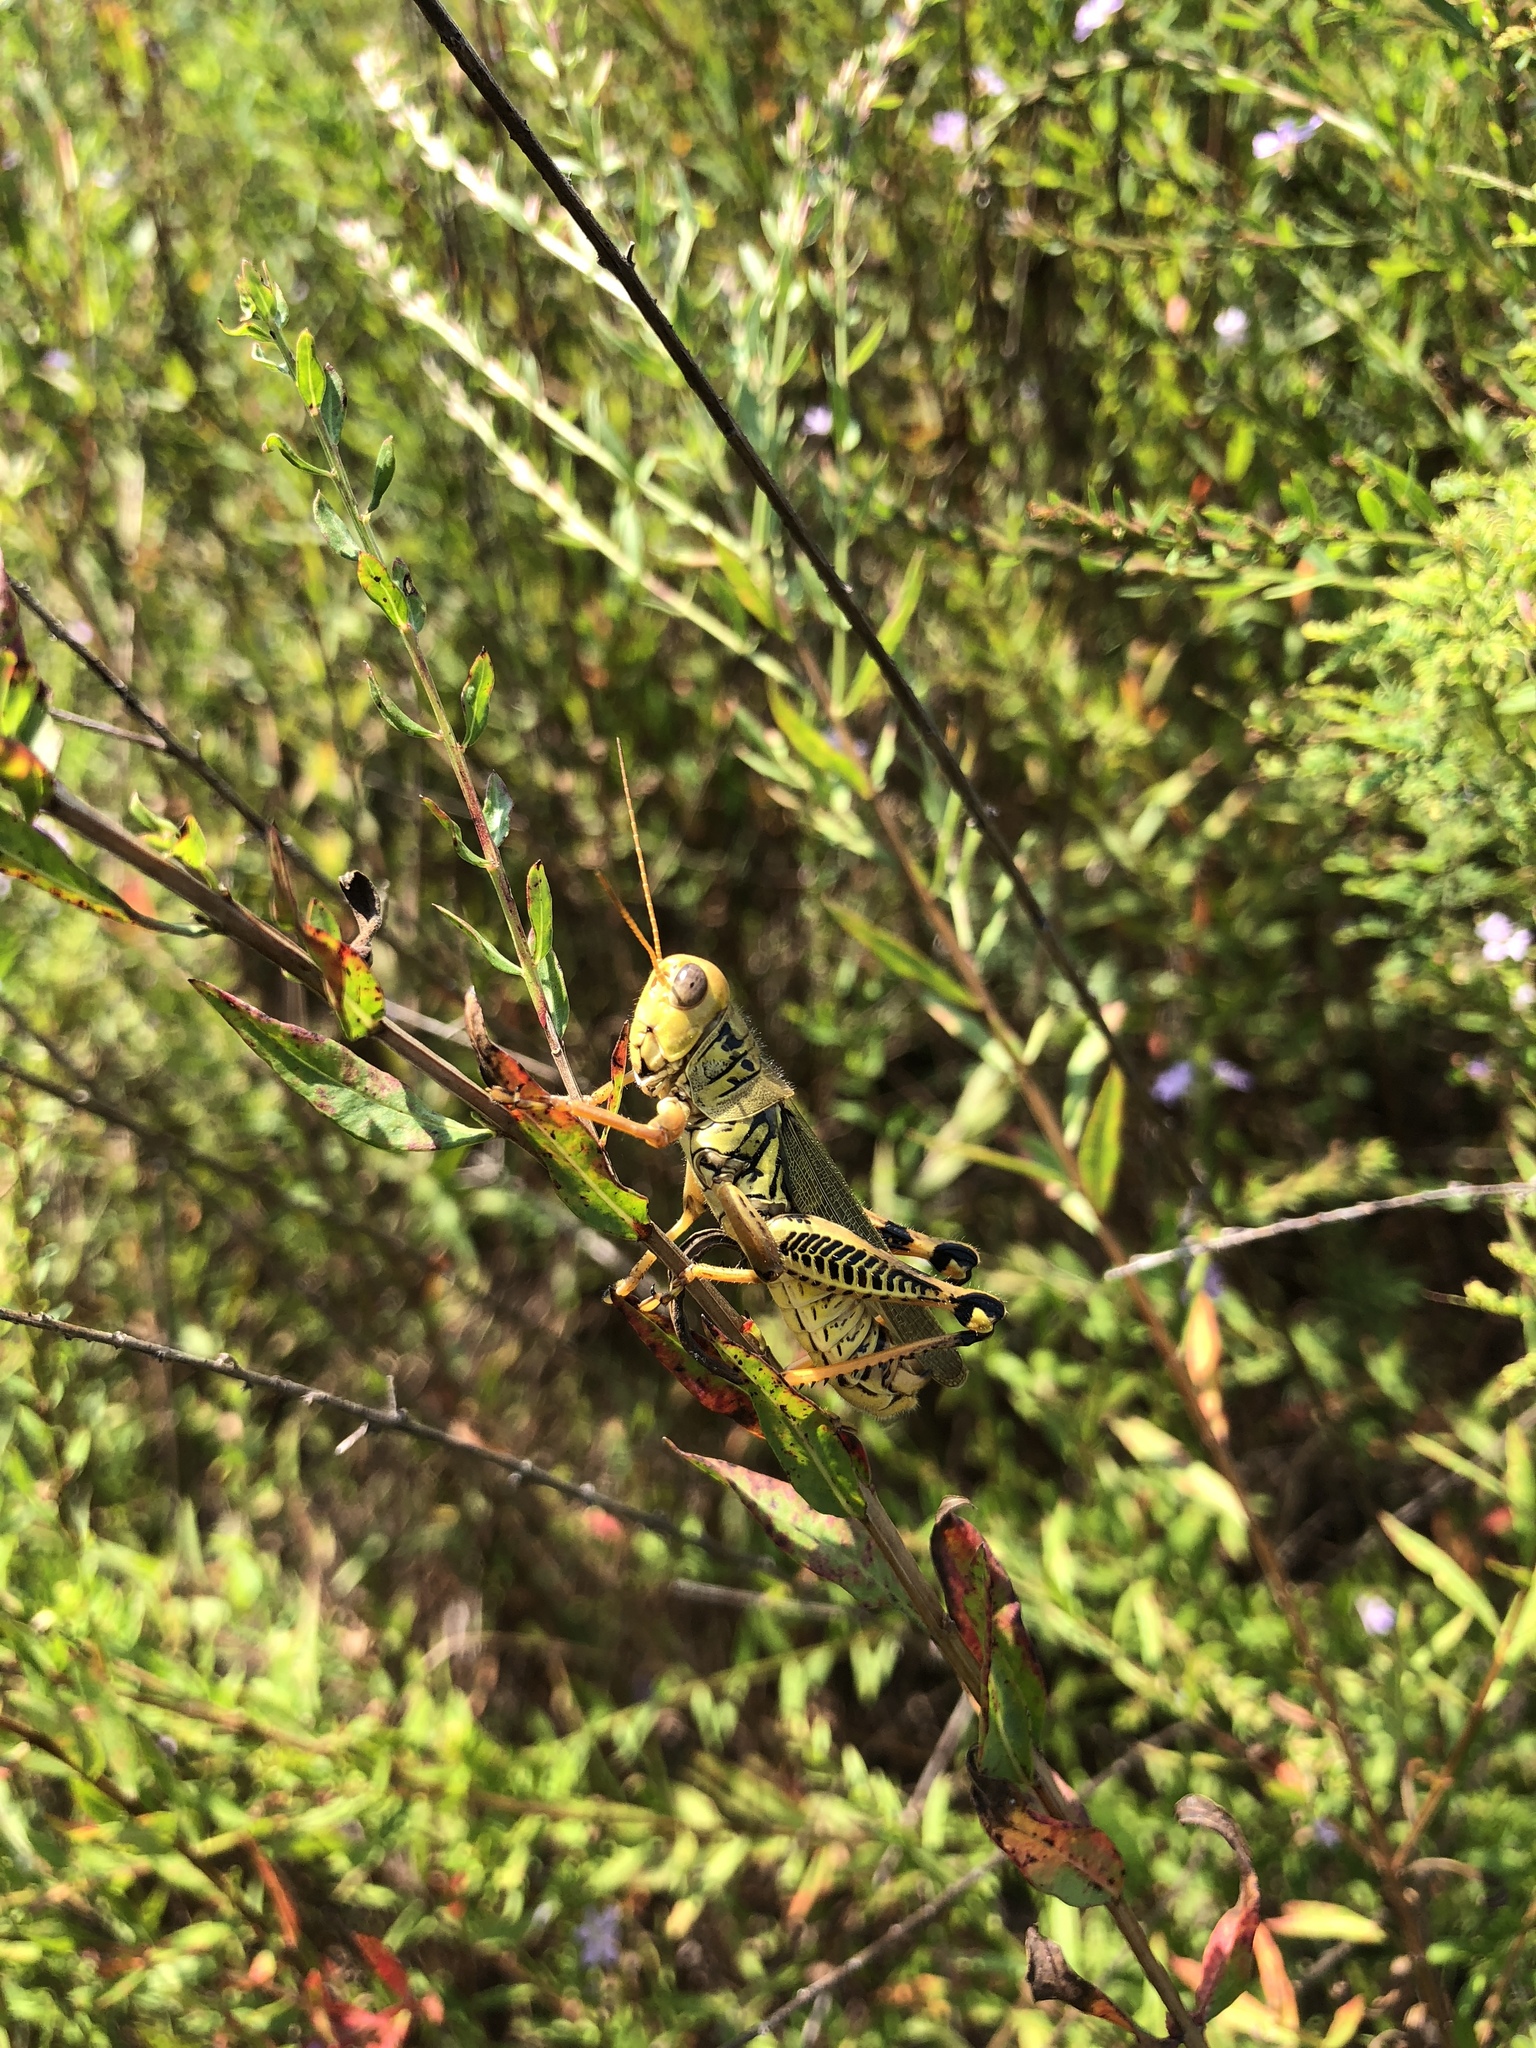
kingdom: Animalia
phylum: Arthropoda
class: Insecta
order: Orthoptera
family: Acrididae
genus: Melanoplus
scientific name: Melanoplus differentialis
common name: Differential grasshopper
